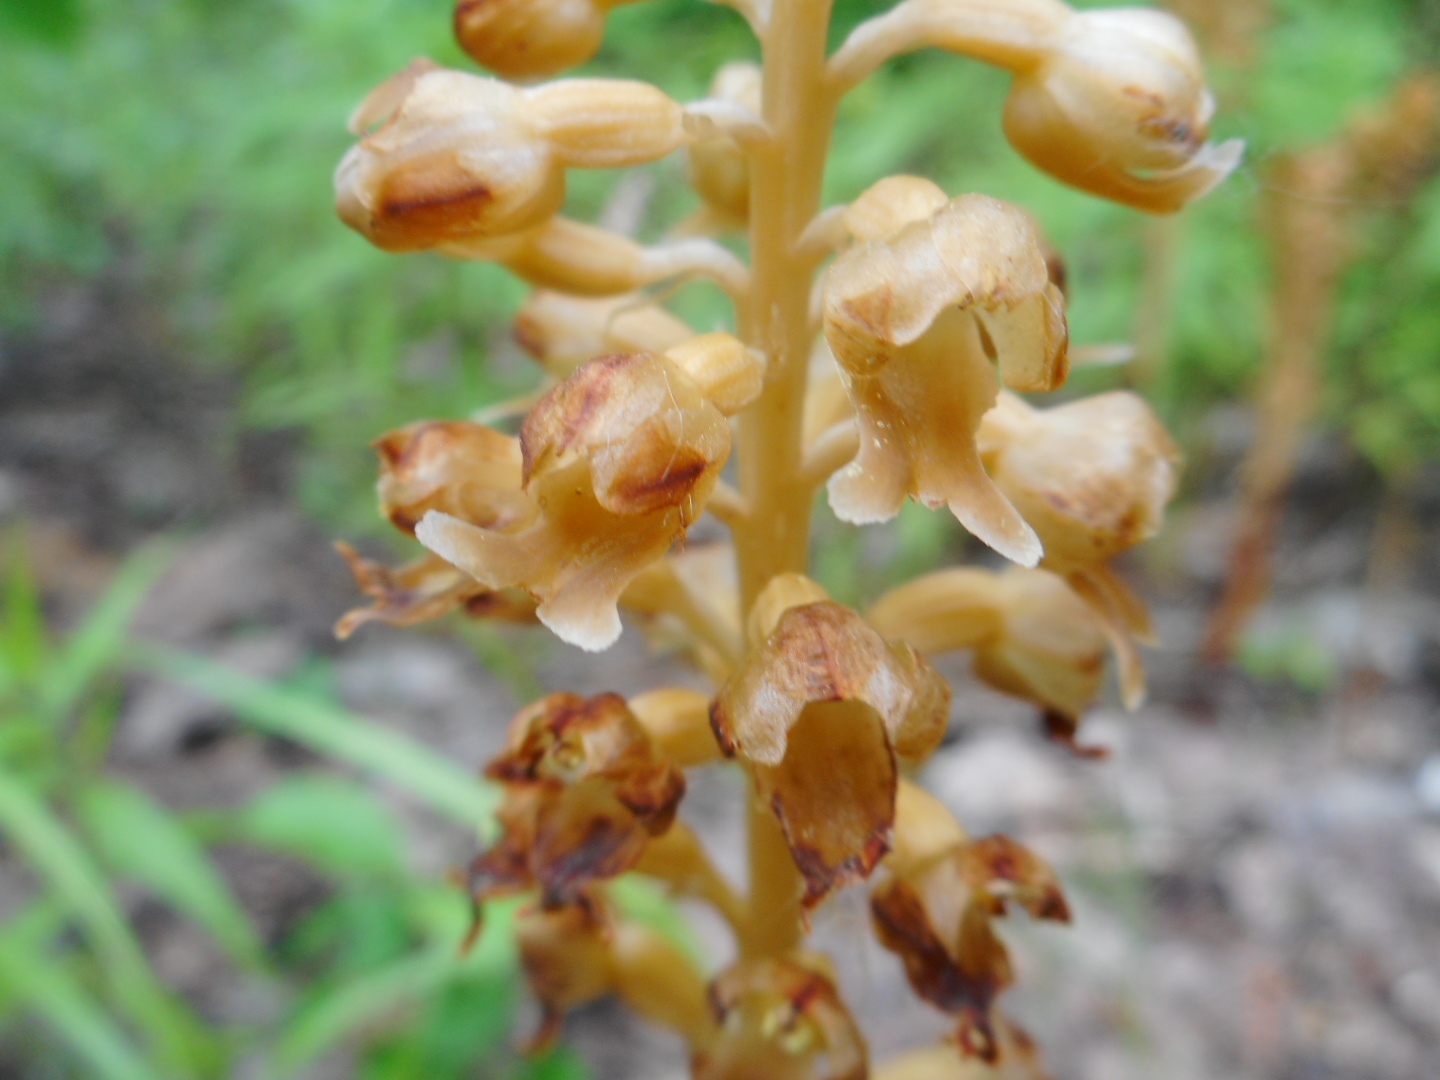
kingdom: Plantae
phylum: Tracheophyta
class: Liliopsida
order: Asparagales
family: Orchidaceae
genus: Neottia
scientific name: Neottia nidus-avis
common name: Bird's-nest orchid
